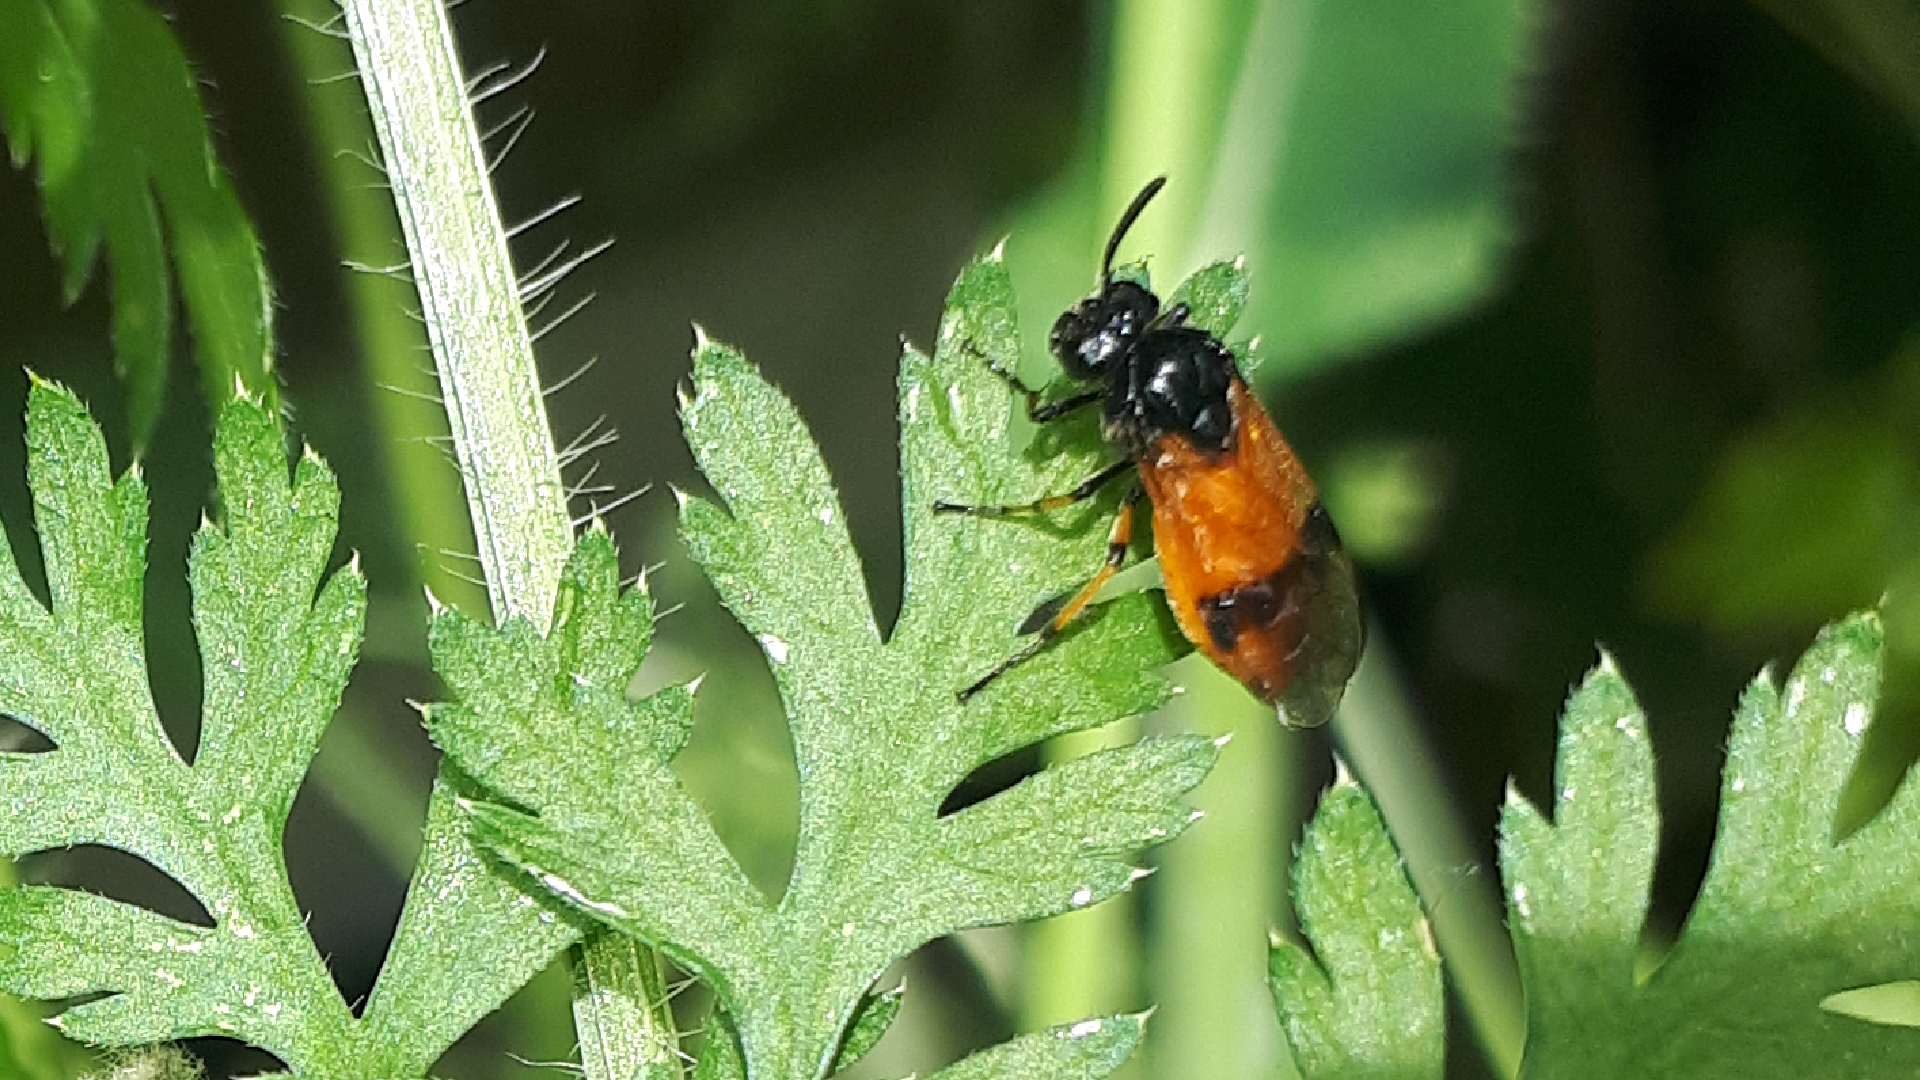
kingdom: Animalia
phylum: Arthropoda
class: Insecta
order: Hymenoptera
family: Argidae
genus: Arge
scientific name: Arge cyanocrocea
